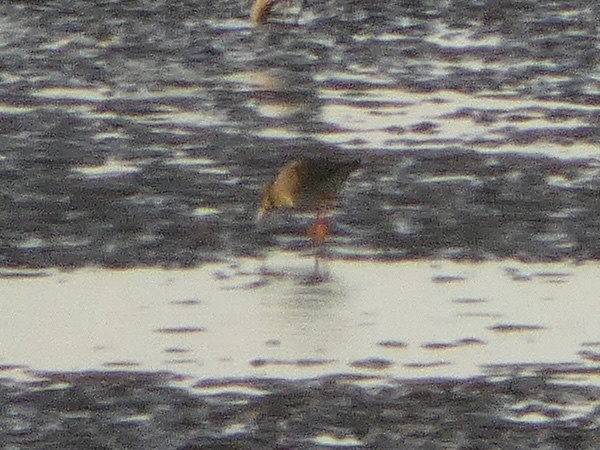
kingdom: Animalia
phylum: Chordata
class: Aves
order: Charadriiformes
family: Scolopacidae
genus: Tringa
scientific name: Tringa totanus
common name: Common redshank
